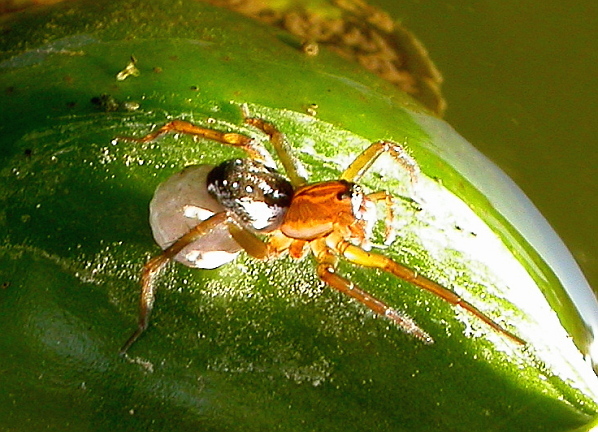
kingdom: Animalia
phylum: Arthropoda
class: Arachnida
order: Araneae
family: Lycosidae
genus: Pirata
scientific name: Pirata
